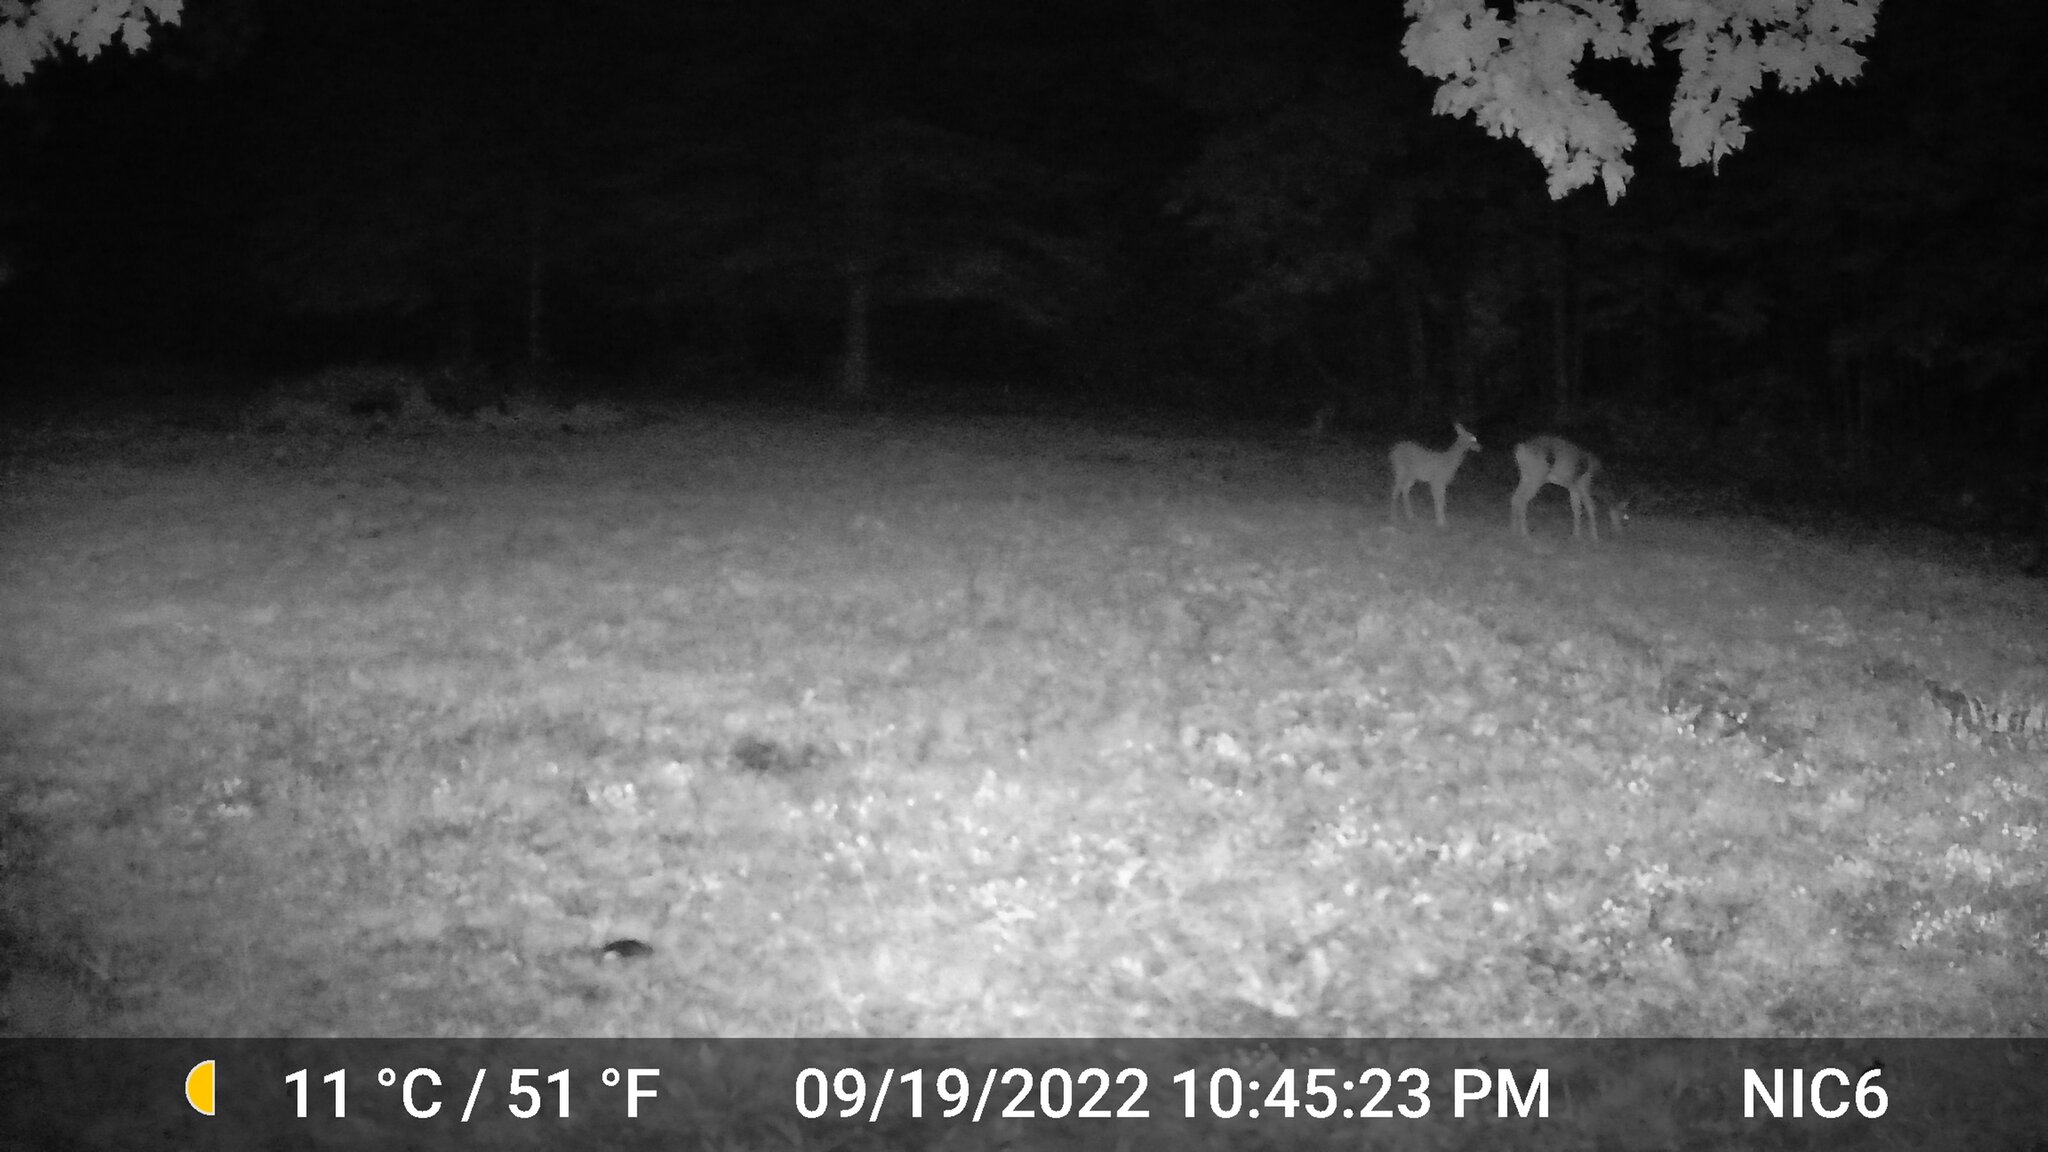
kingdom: Animalia
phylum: Chordata
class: Mammalia
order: Artiodactyla
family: Cervidae
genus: Odocoileus
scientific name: Odocoileus virginianus
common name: White-tailed deer
